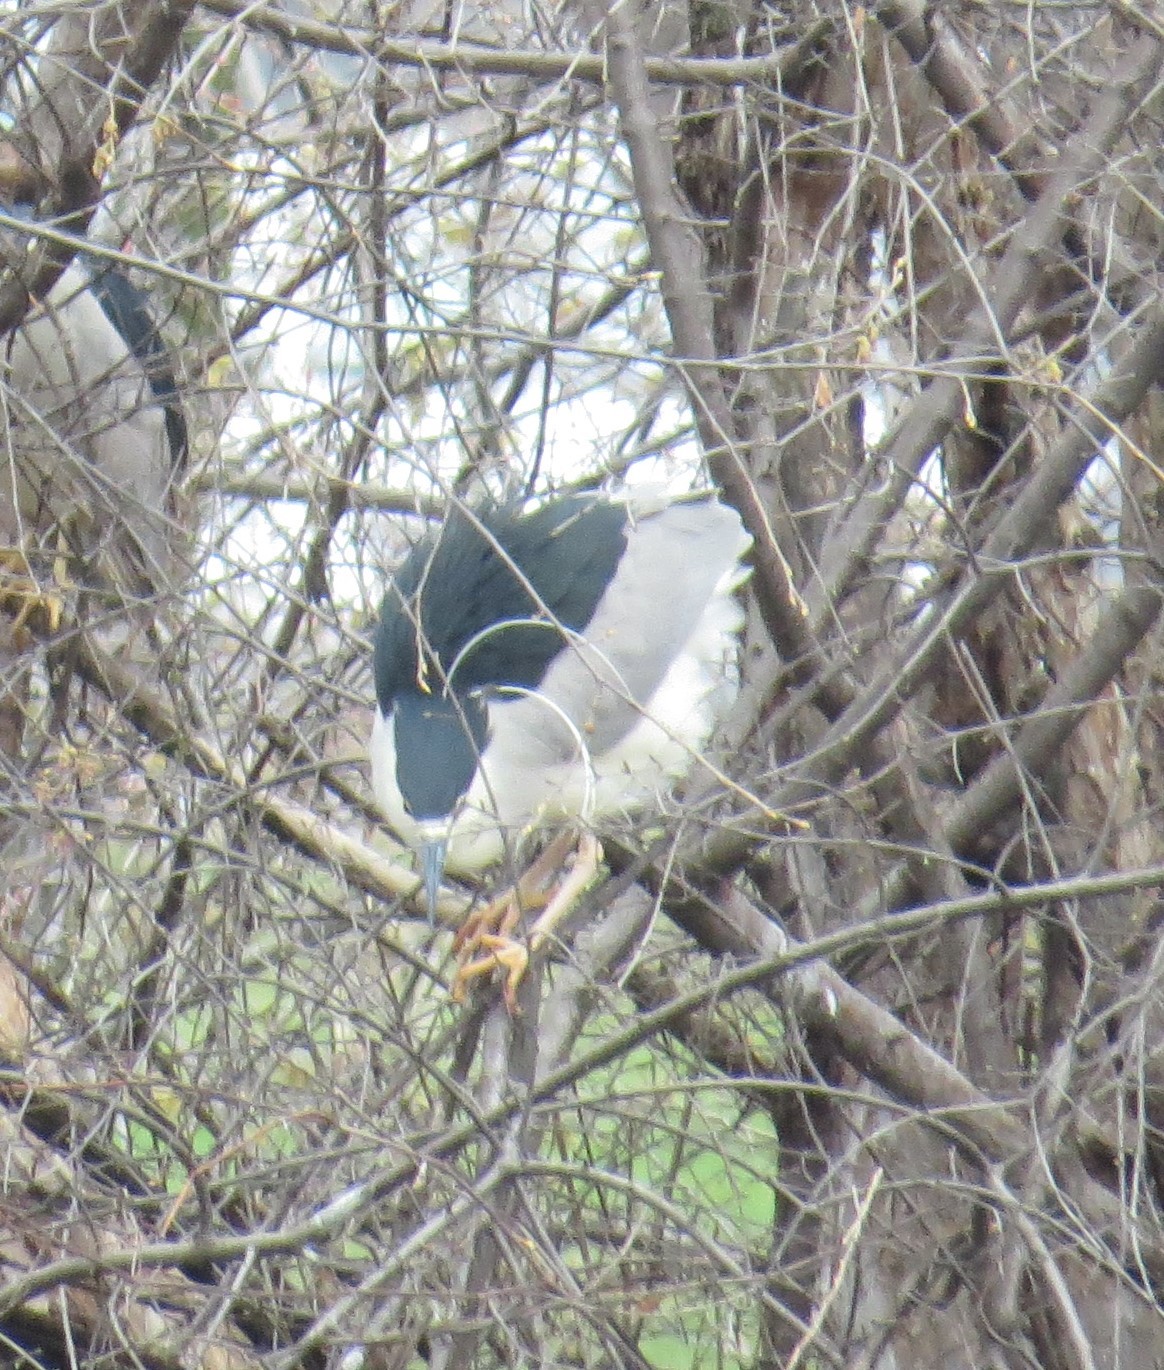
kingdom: Animalia
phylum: Chordata
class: Aves
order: Pelecaniformes
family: Ardeidae
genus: Nycticorax
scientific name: Nycticorax nycticorax
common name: Black-crowned night heron
